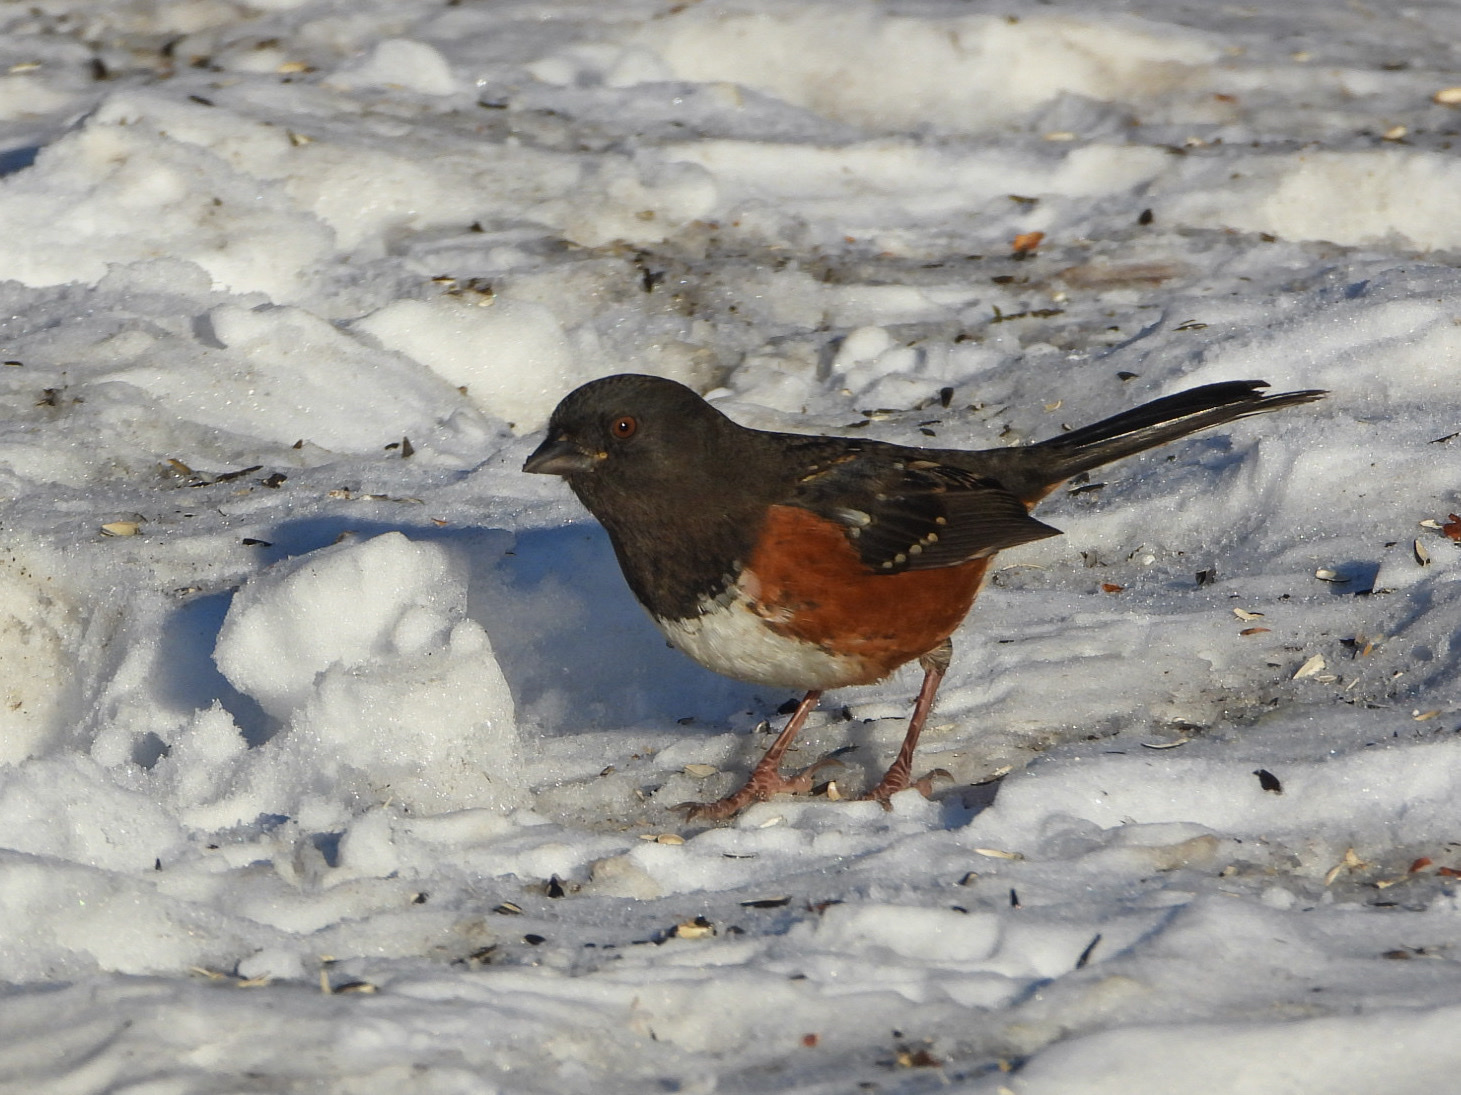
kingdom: Animalia
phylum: Chordata
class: Aves
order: Passeriformes
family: Passerellidae
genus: Pipilo
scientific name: Pipilo maculatus
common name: Spotted towhee
